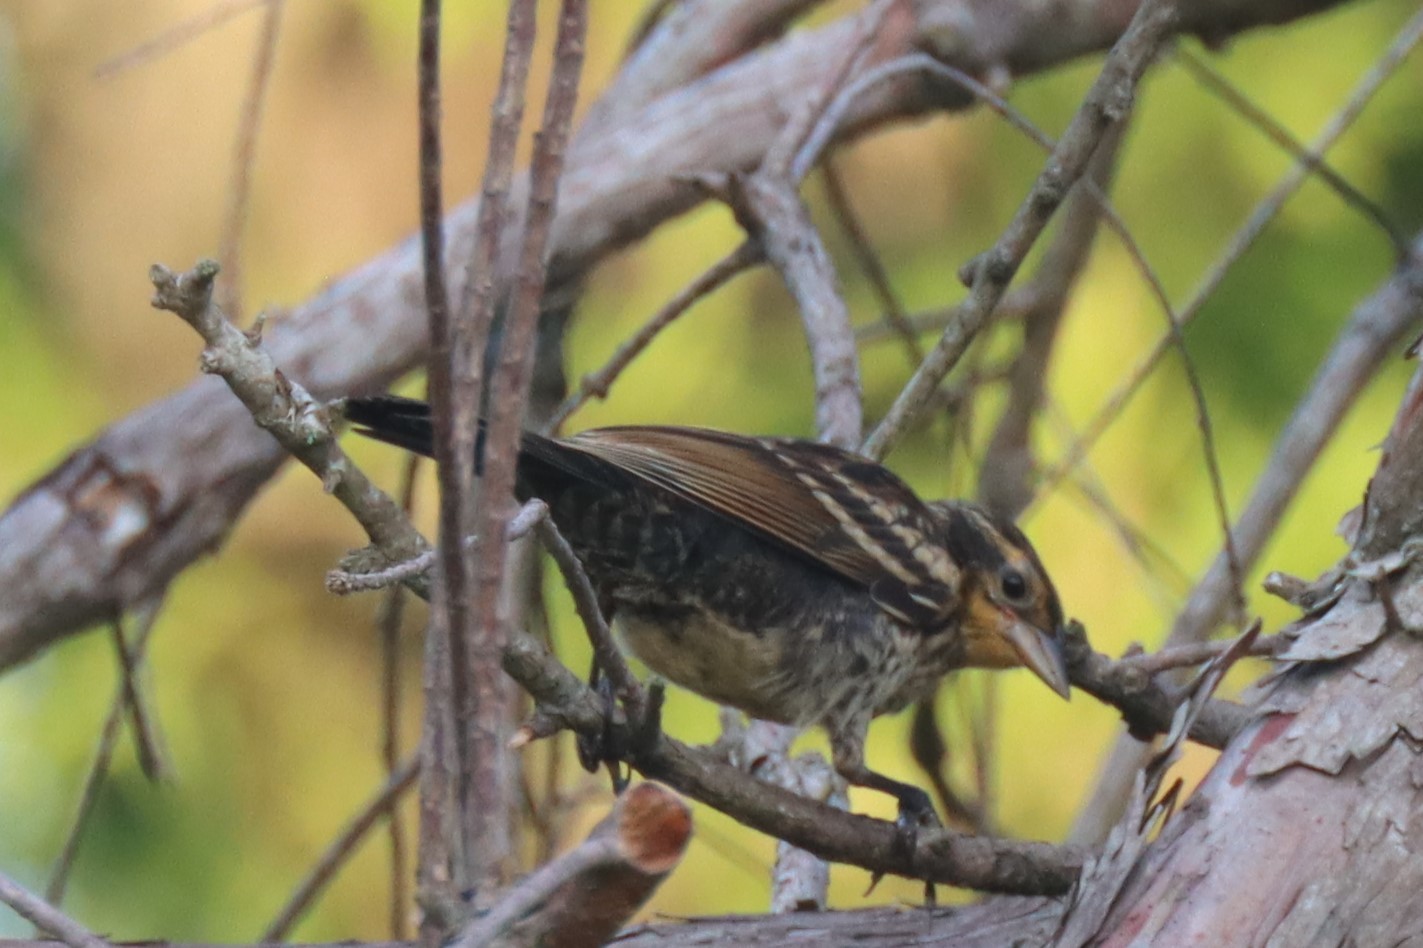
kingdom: Animalia
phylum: Chordata
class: Aves
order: Passeriformes
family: Icteridae
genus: Agelaius
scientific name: Agelaius phoeniceus
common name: Red-winged blackbird
